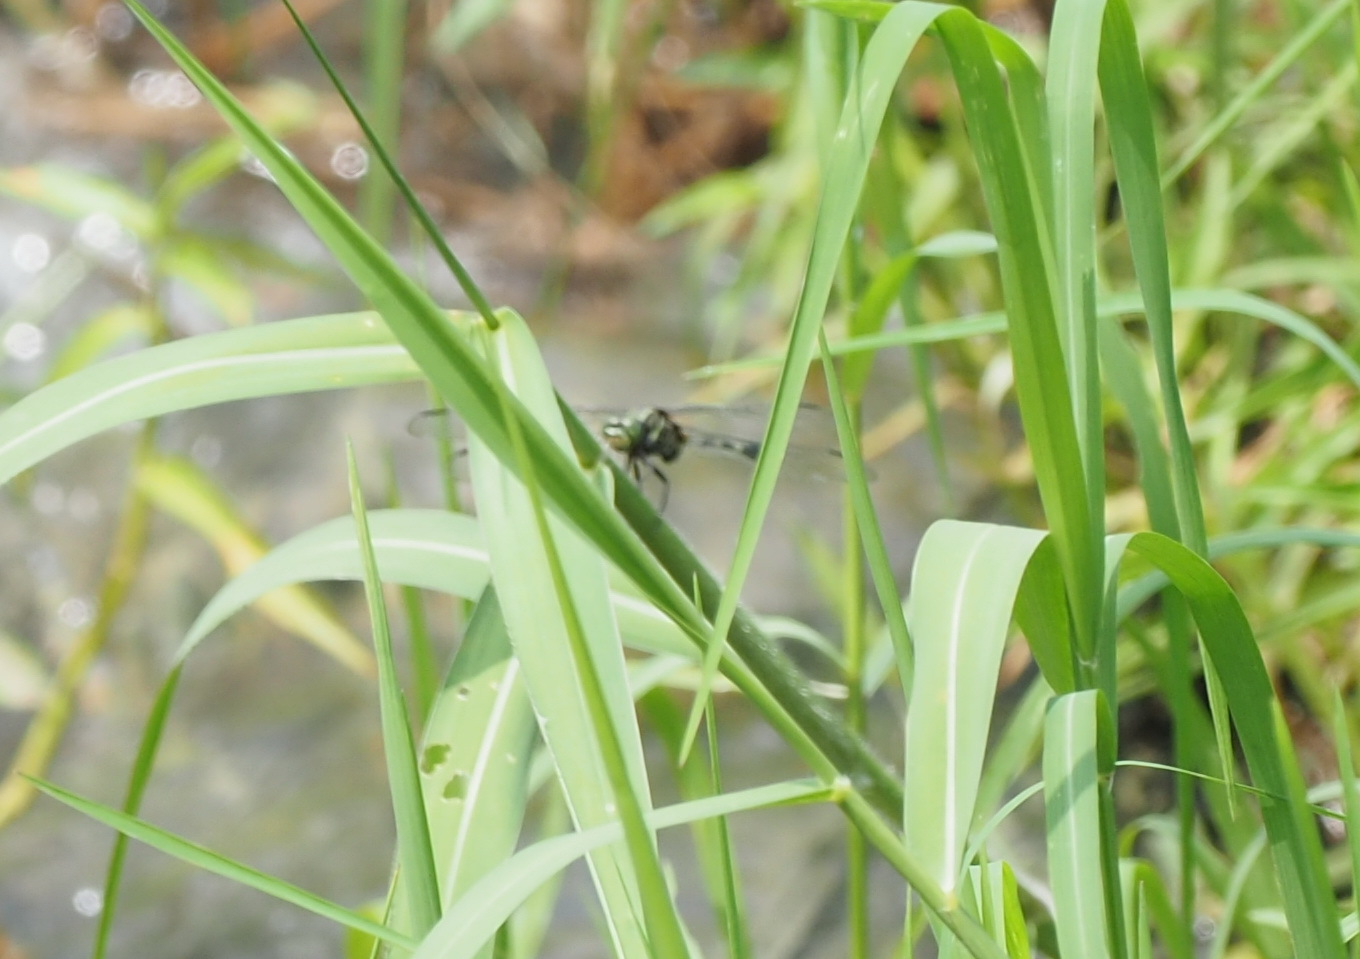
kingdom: Animalia
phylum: Arthropoda
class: Insecta
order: Odonata
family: Libellulidae
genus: Orthetrum
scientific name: Orthetrum sabina
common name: Slender skimmer
